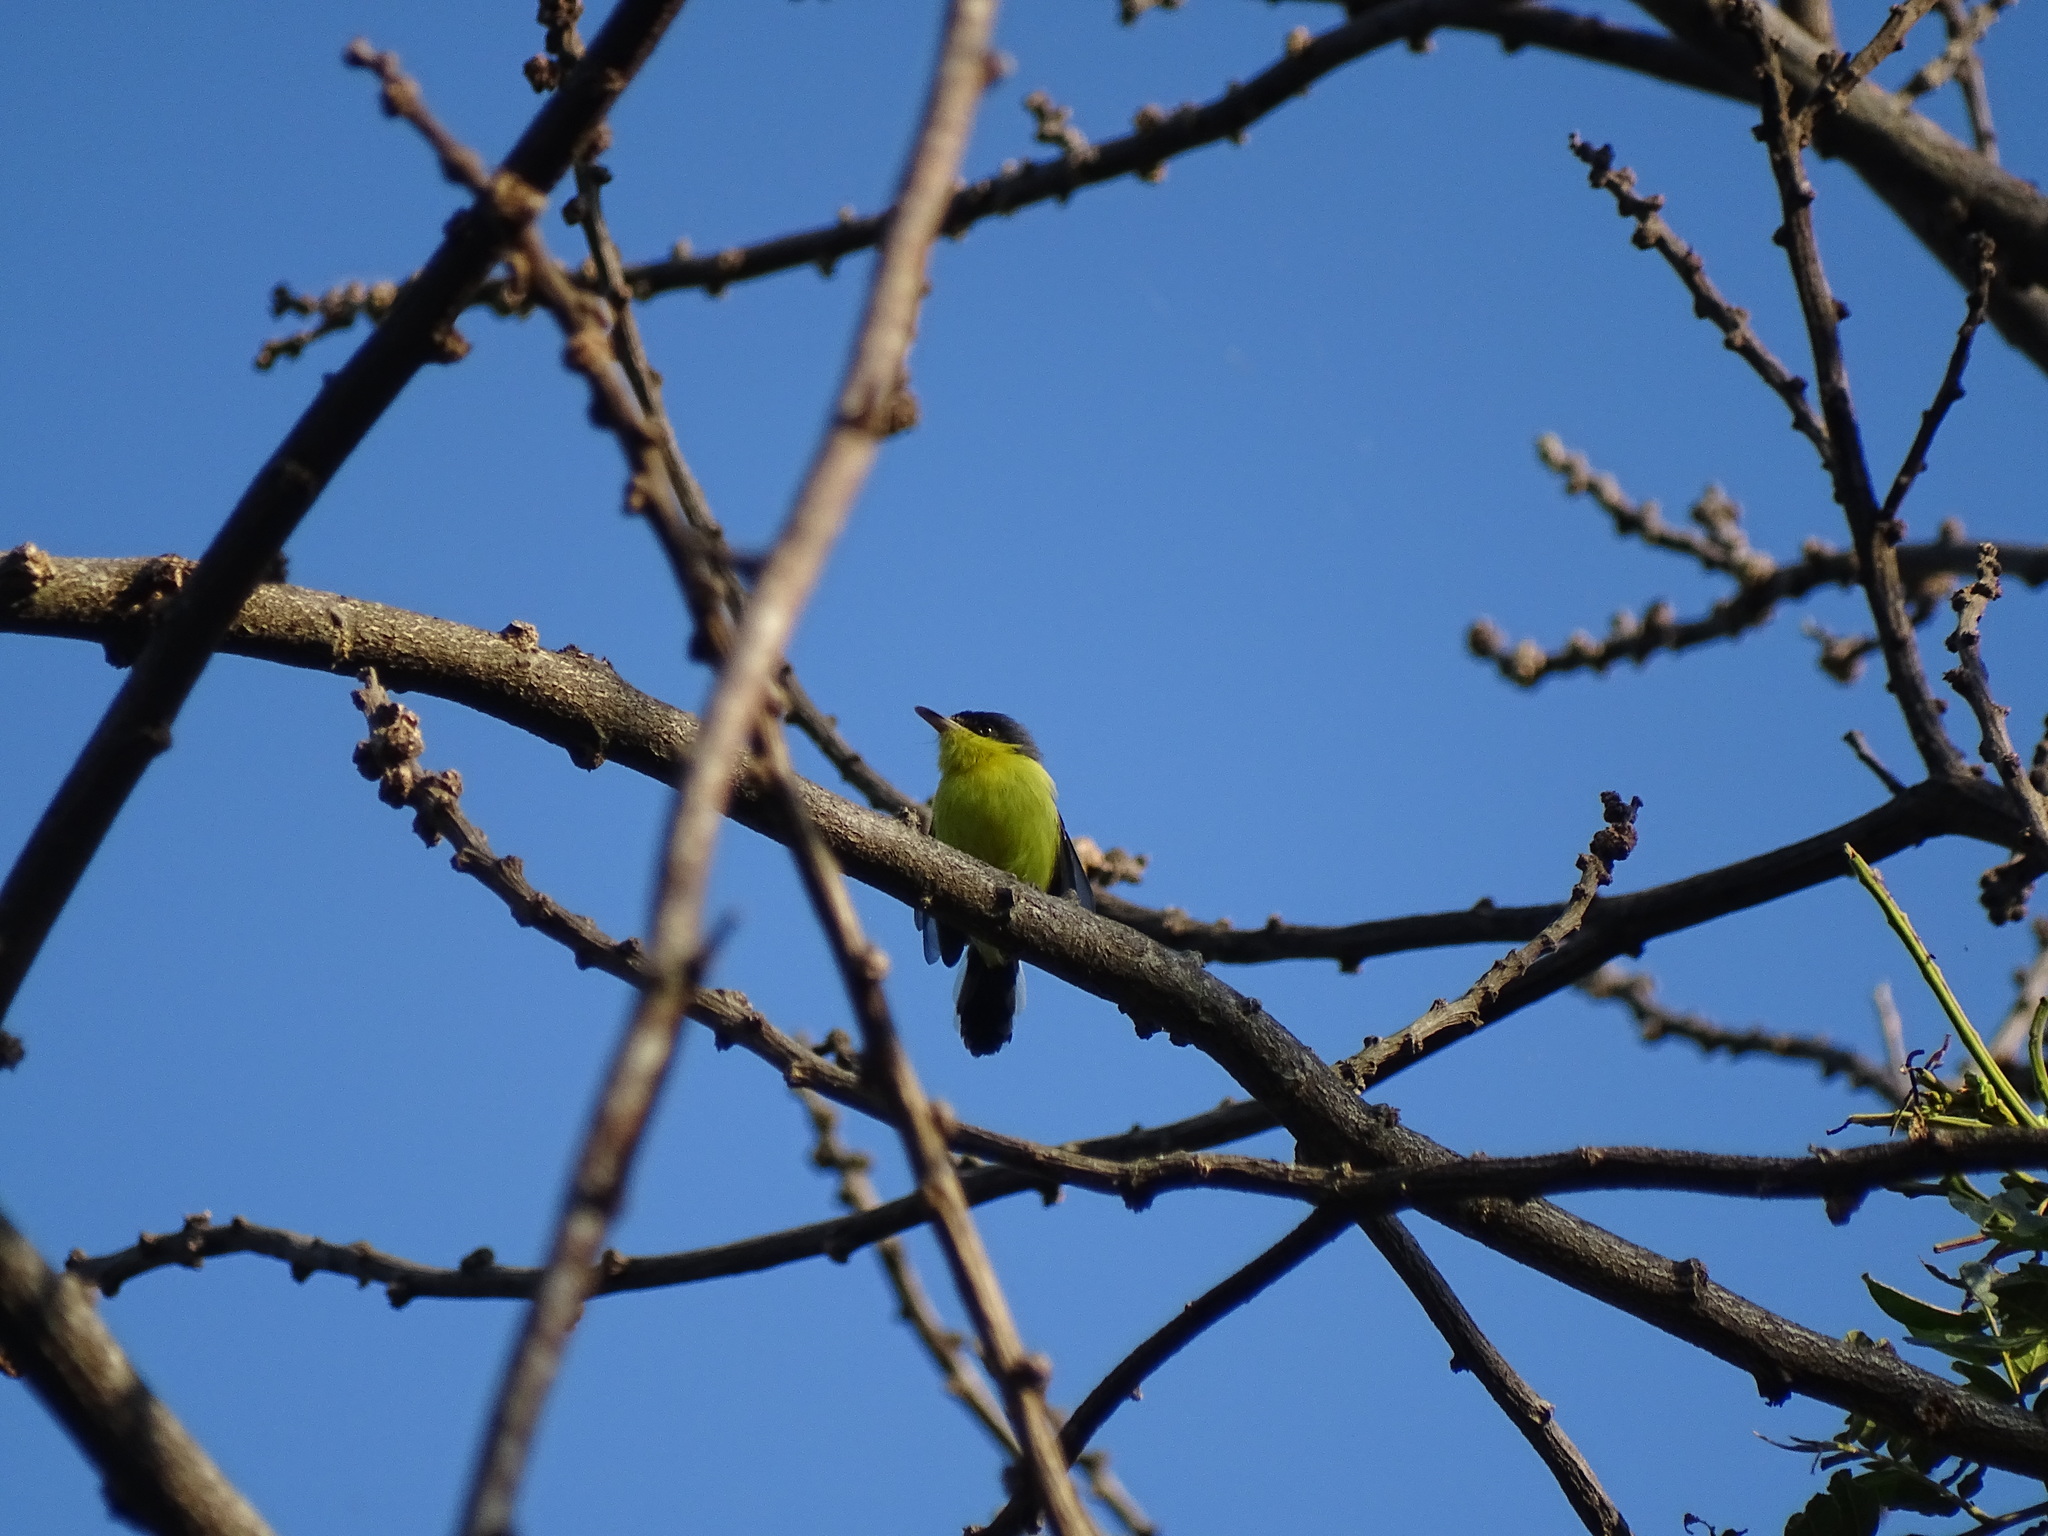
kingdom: Animalia
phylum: Chordata
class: Aves
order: Passeriformes
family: Tyrannidae
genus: Todirostrum
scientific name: Todirostrum cinereum
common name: Common tody-flycatcher
